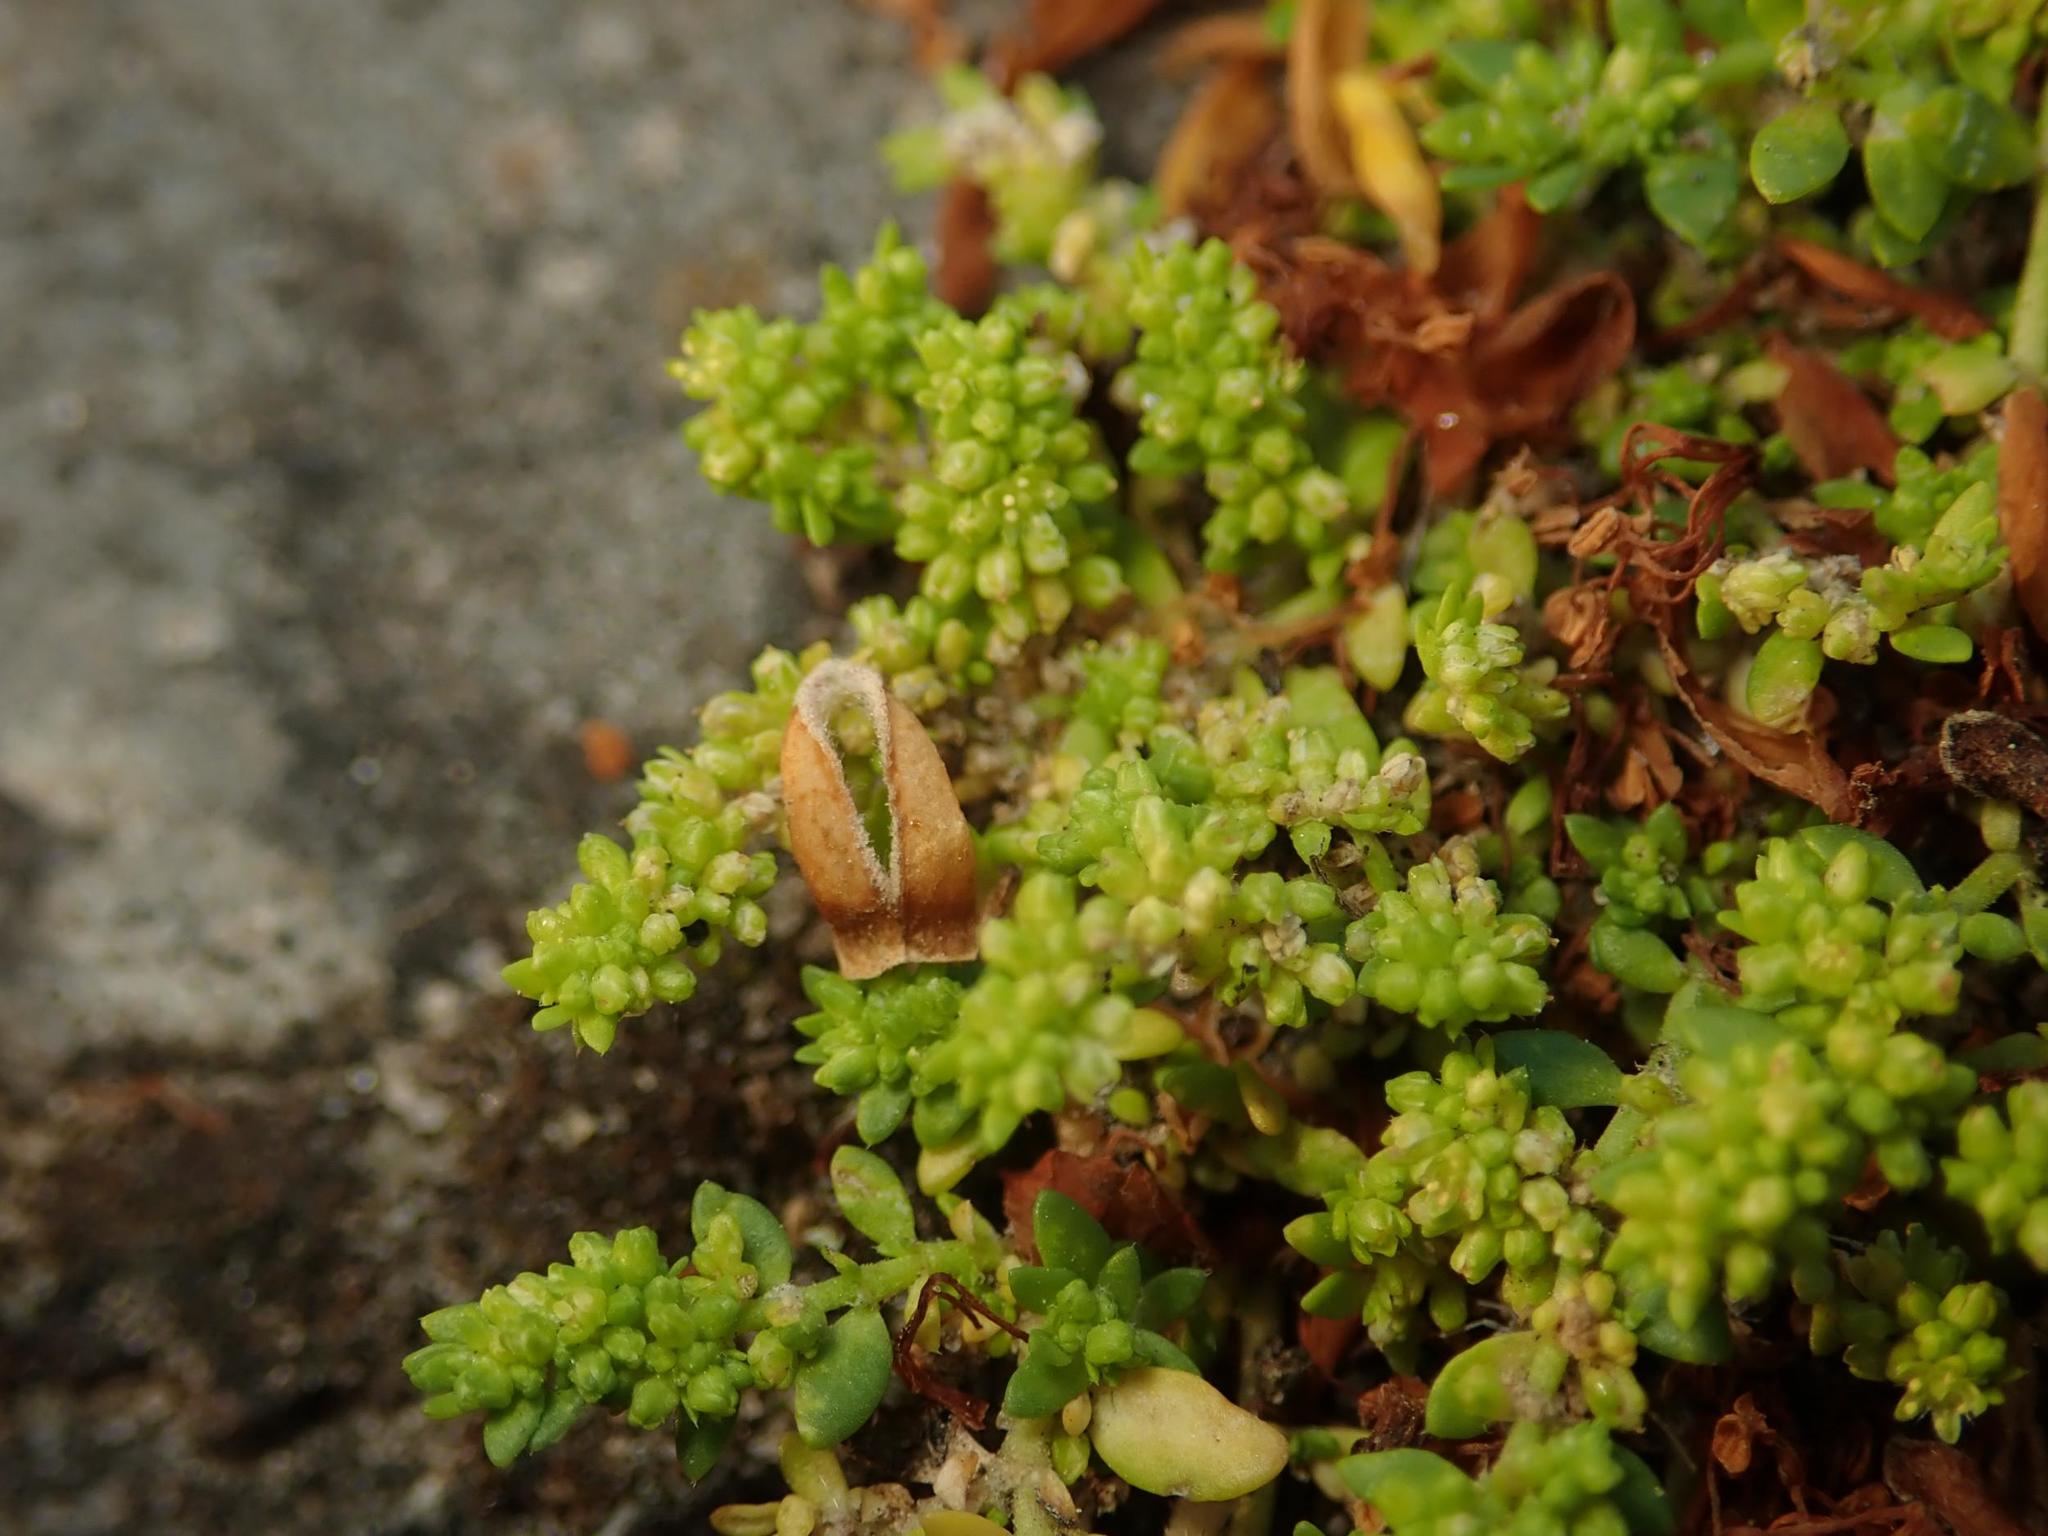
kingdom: Plantae
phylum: Tracheophyta
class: Magnoliopsida
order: Caryophyllales
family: Caryophyllaceae
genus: Herniaria
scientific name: Herniaria glabra
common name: Smooth rupturewort
